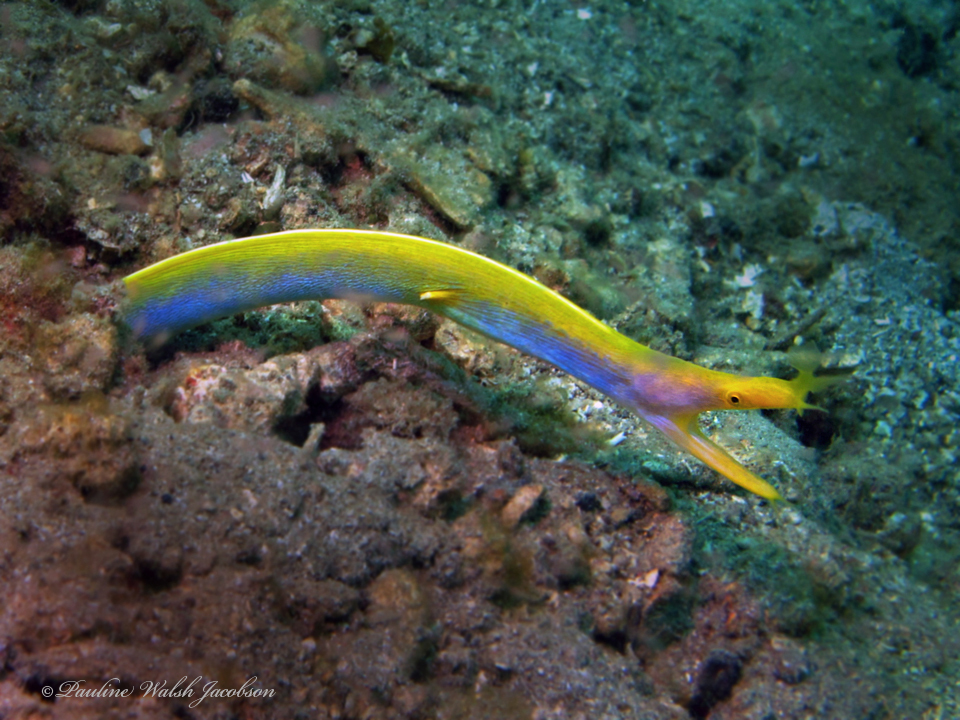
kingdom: Animalia
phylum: Chordata
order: Anguilliformes
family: Muraenidae
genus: Rhinomuraena
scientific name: Rhinomuraena quaesita
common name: Ribbon eel
